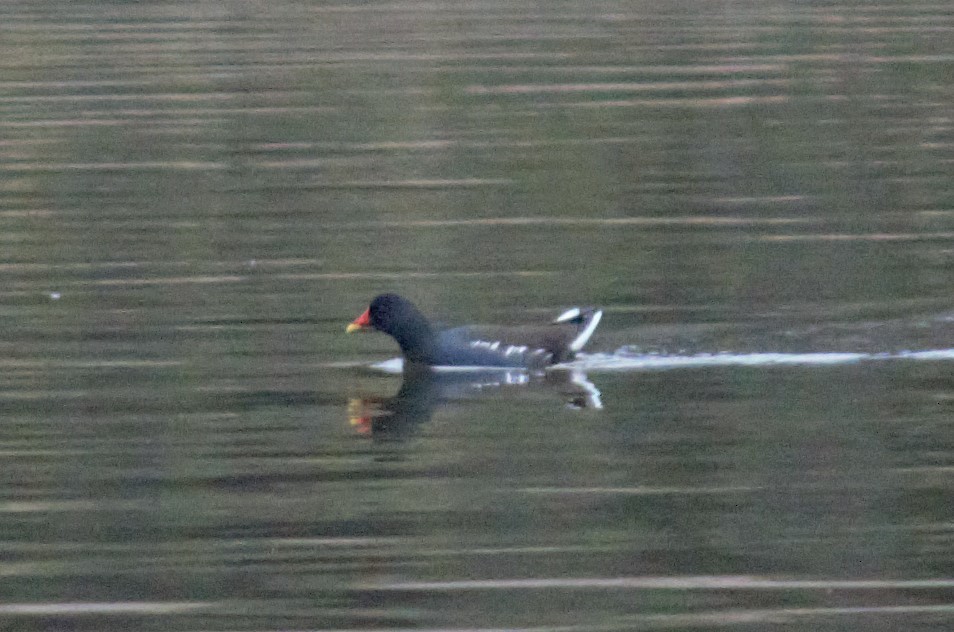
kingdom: Animalia
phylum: Chordata
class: Aves
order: Gruiformes
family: Rallidae
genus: Gallinula
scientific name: Gallinula chloropus
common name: Common moorhen
